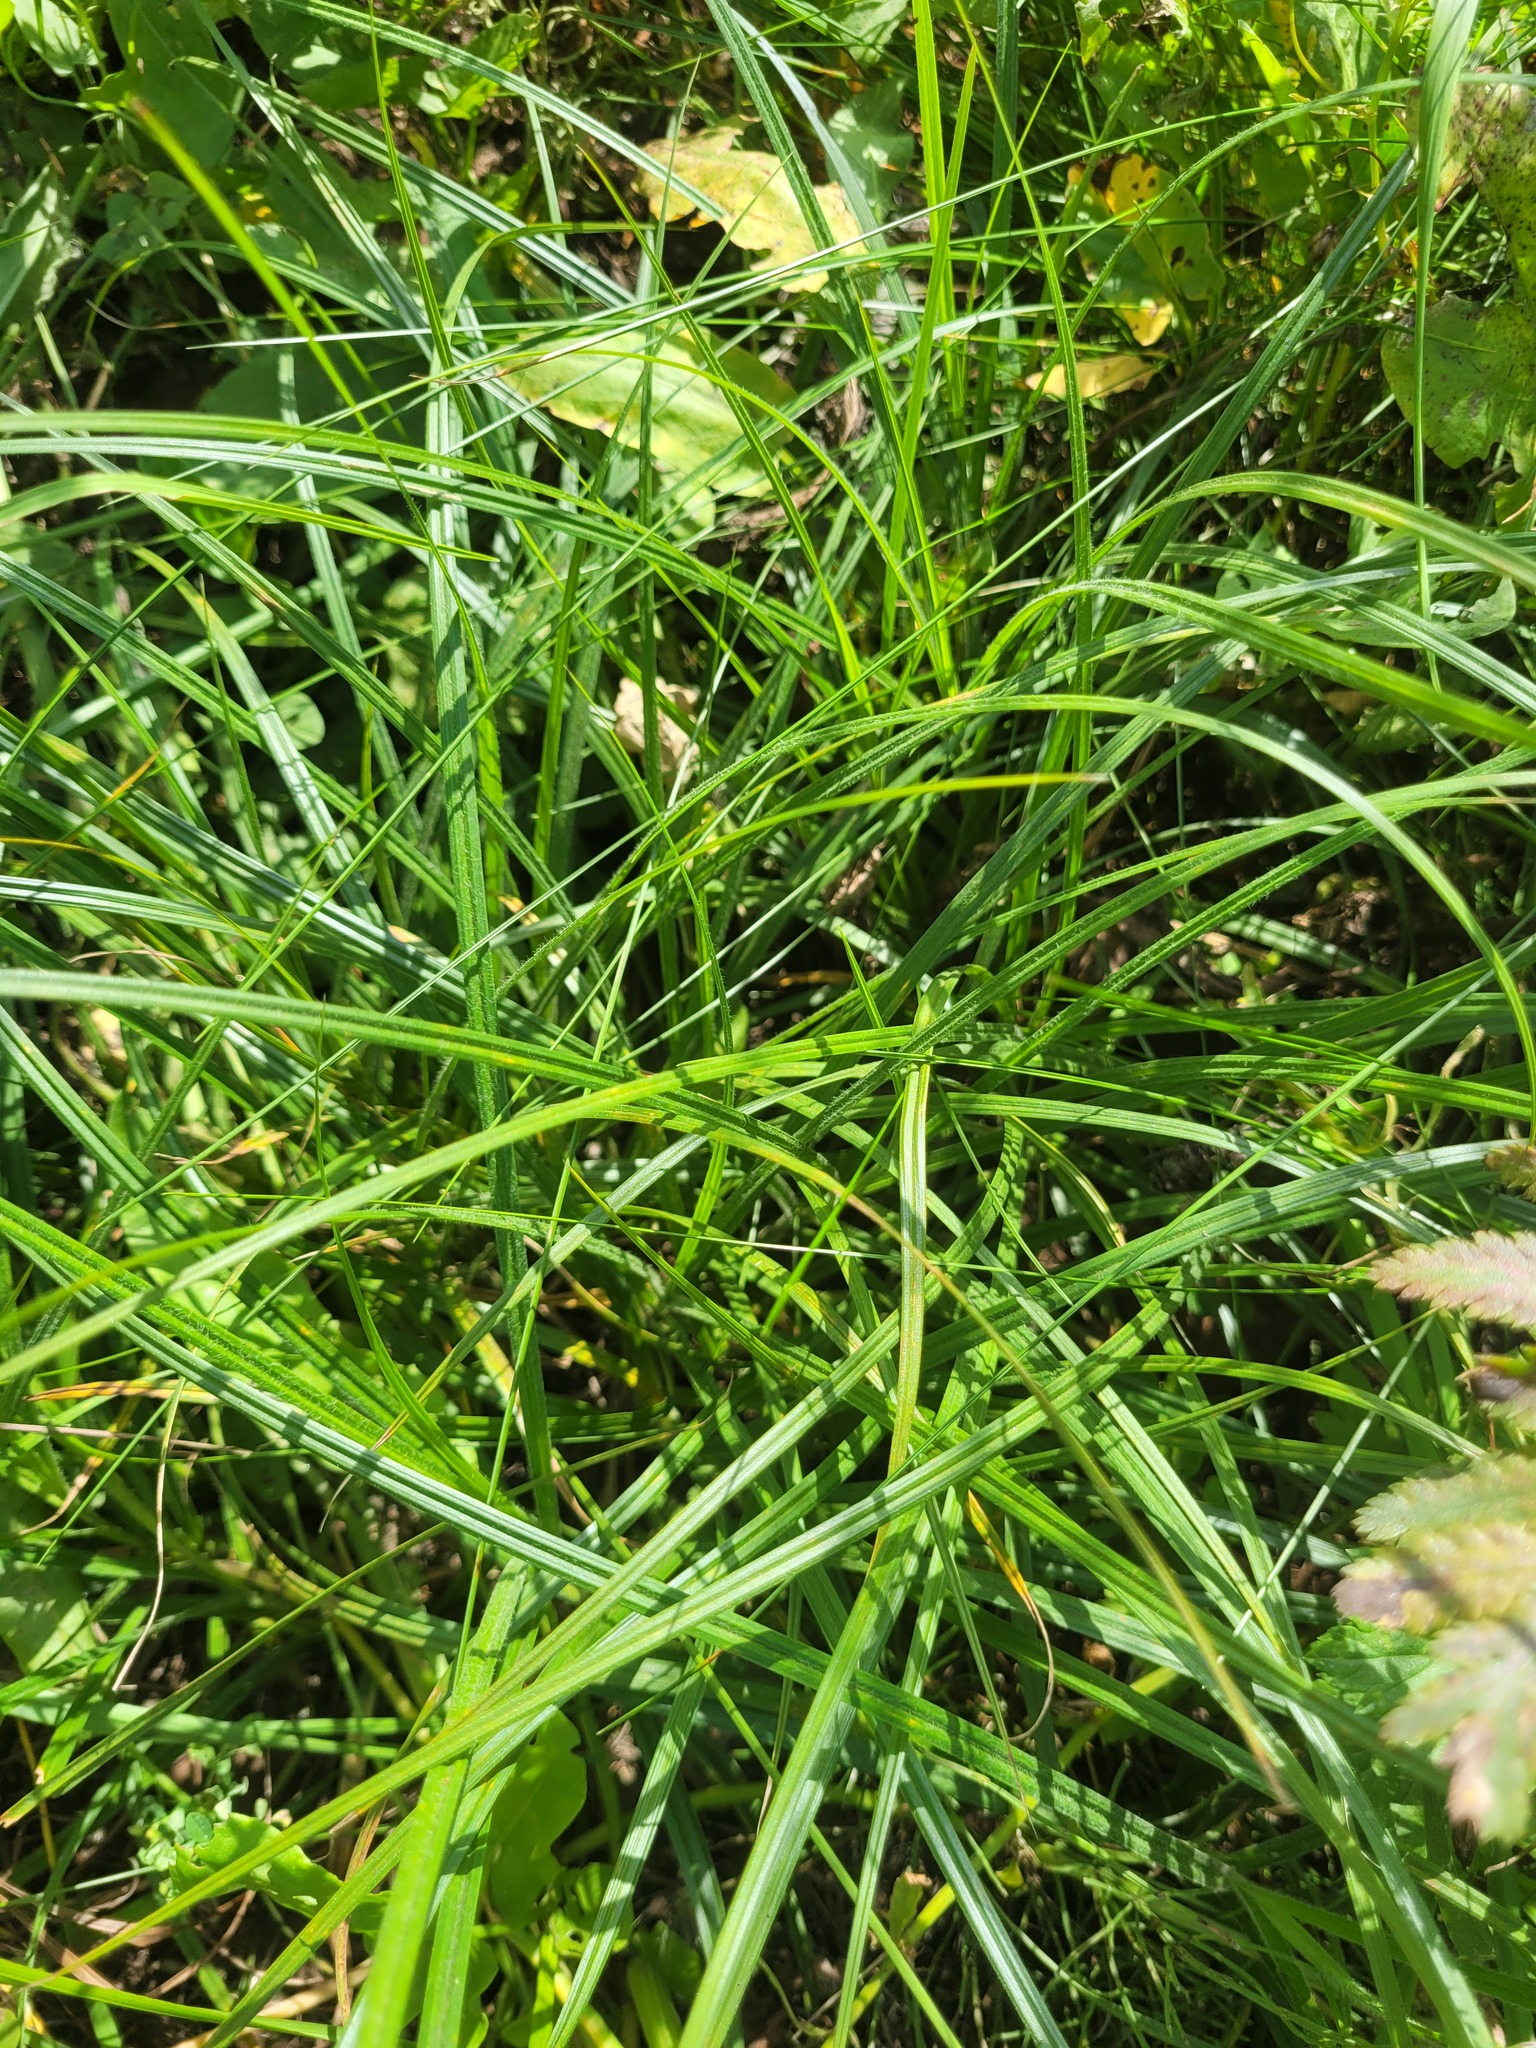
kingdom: Plantae
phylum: Tracheophyta
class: Liliopsida
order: Poales
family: Cyperaceae
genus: Carex
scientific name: Carex hirta
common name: Hairy sedge
